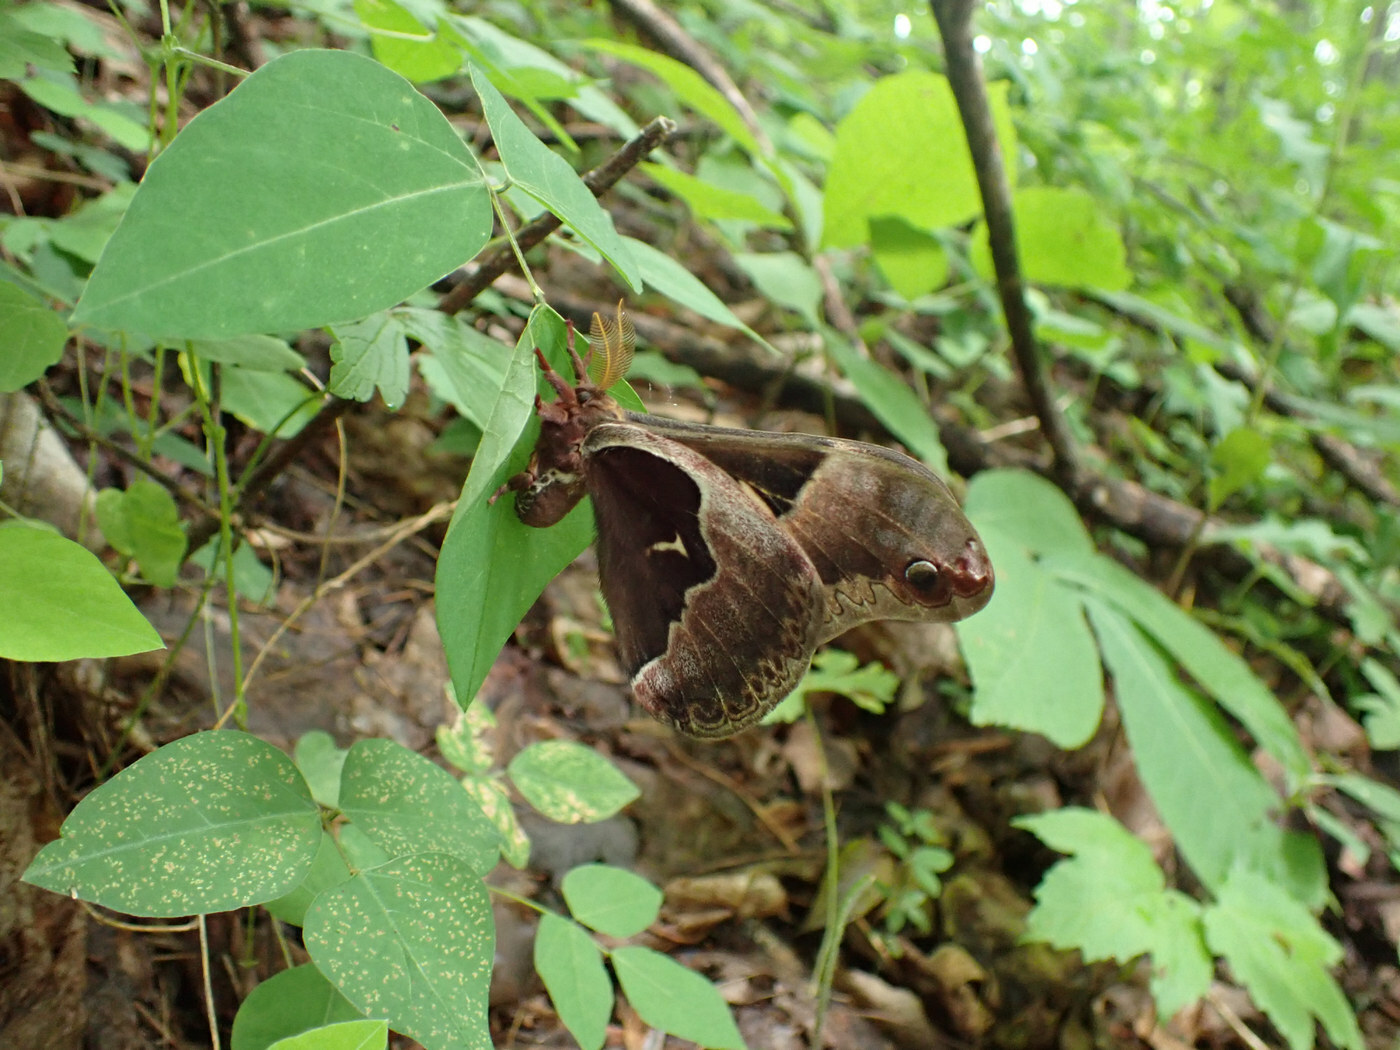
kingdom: Animalia
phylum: Arthropoda
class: Insecta
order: Lepidoptera
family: Saturniidae
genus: Callosamia
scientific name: Callosamia angulifera
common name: Tulip tree silkmoth
